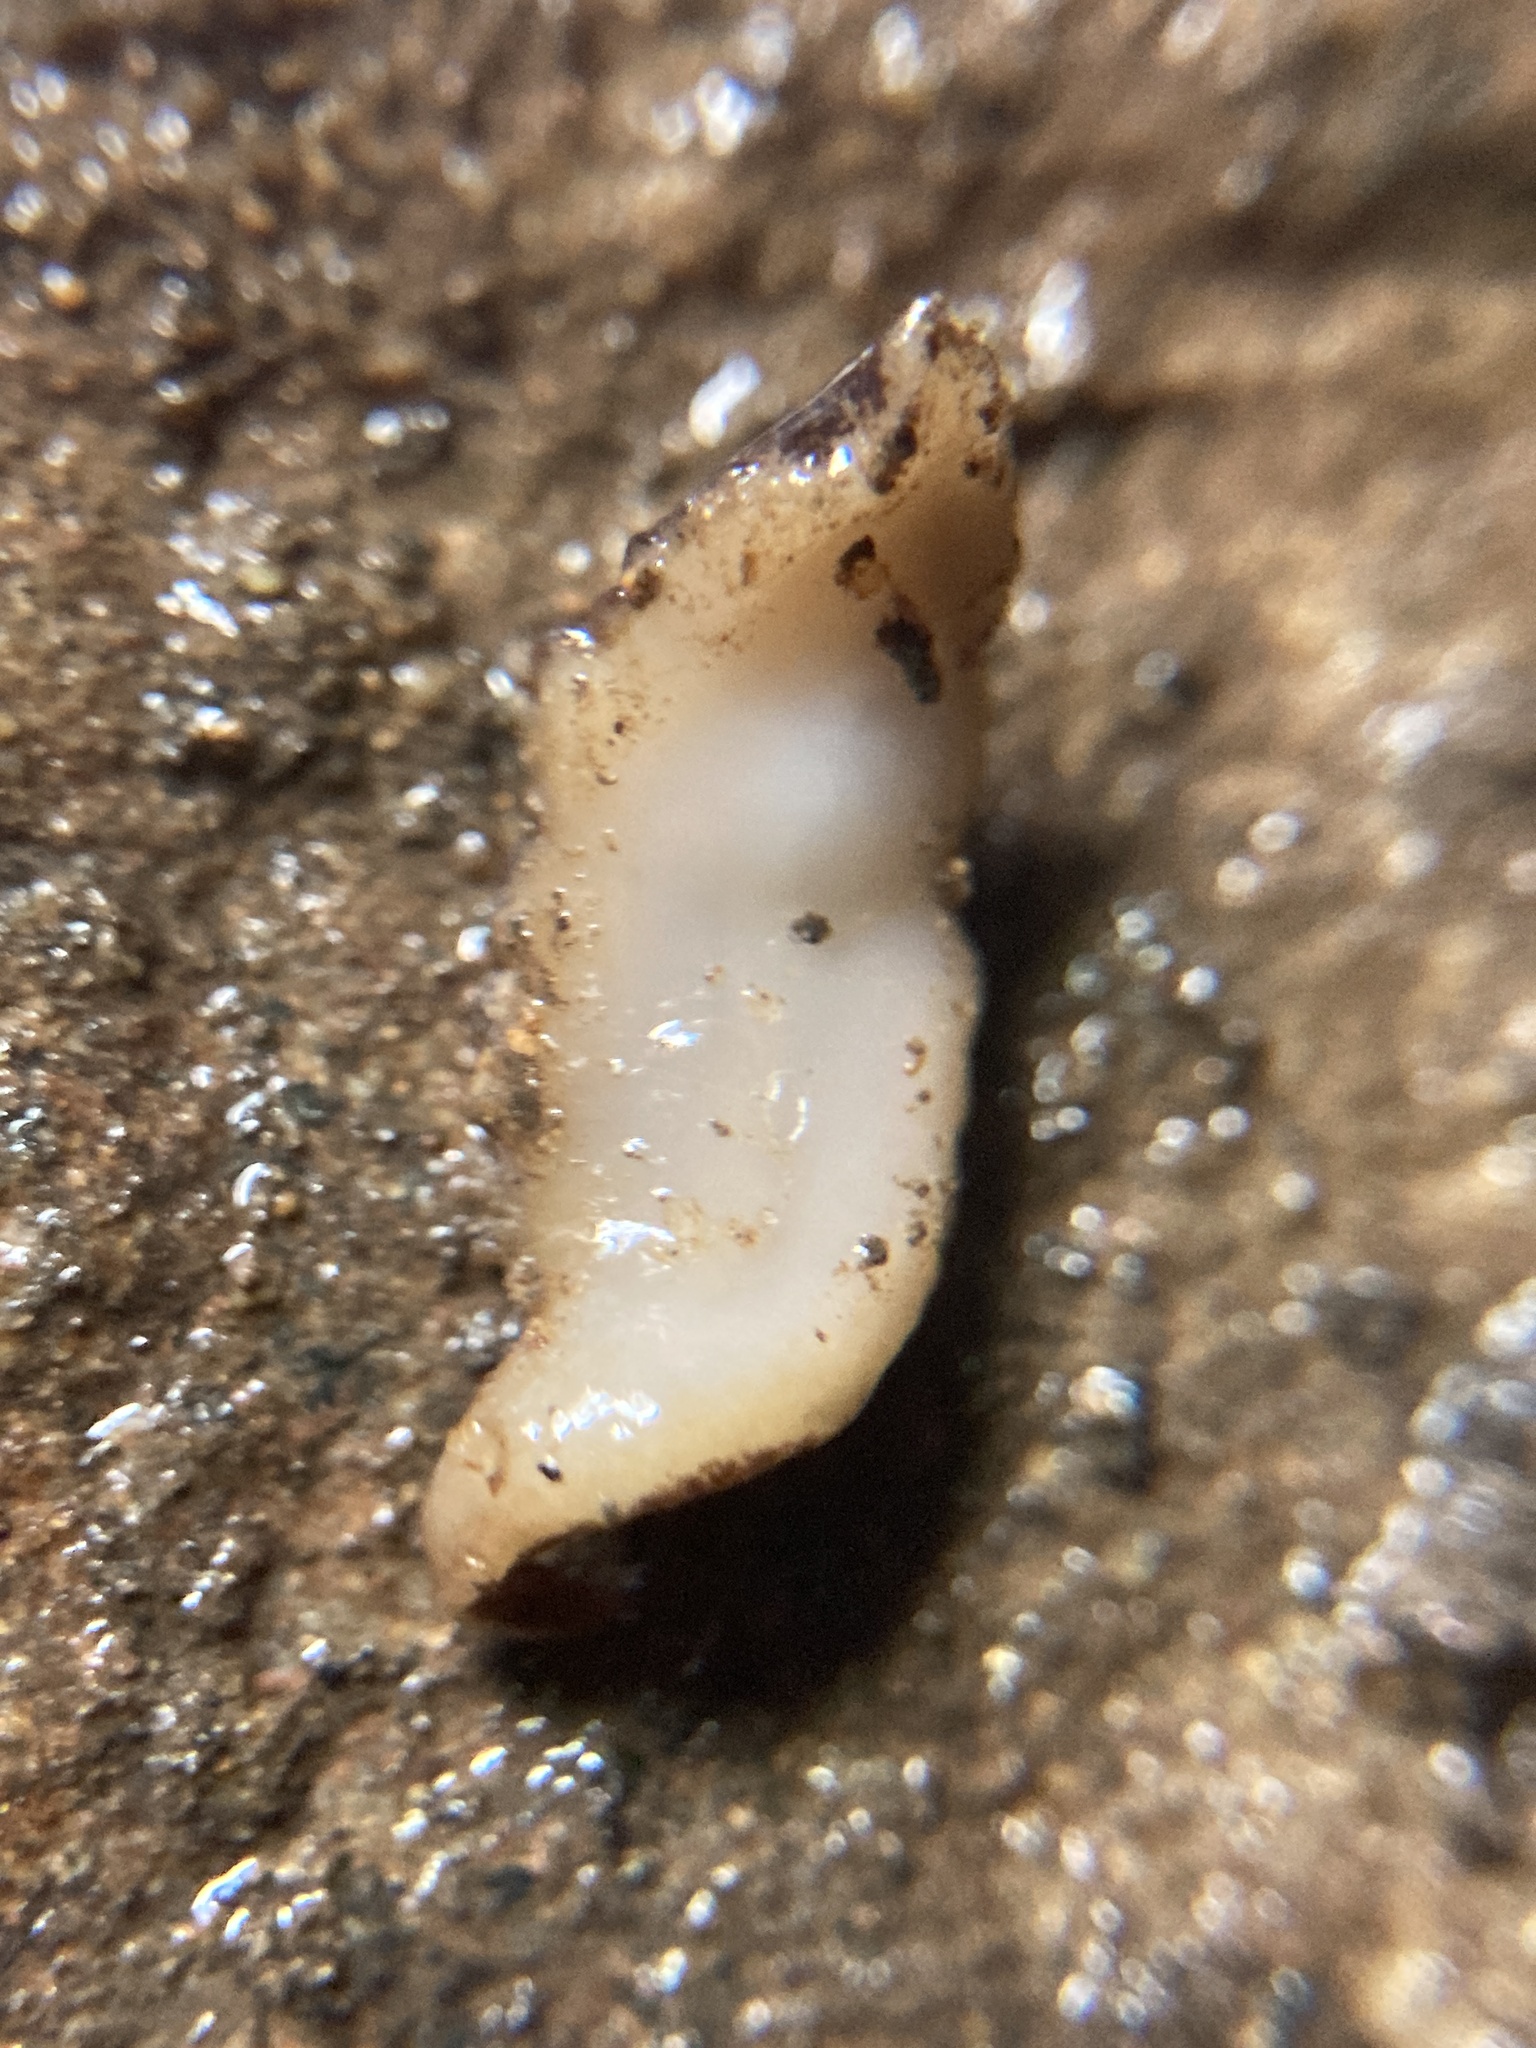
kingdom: Animalia
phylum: Platyhelminthes
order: Tricladida
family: Geoplanidae
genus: Reomkago
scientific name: Reomkago quadrangulatus
